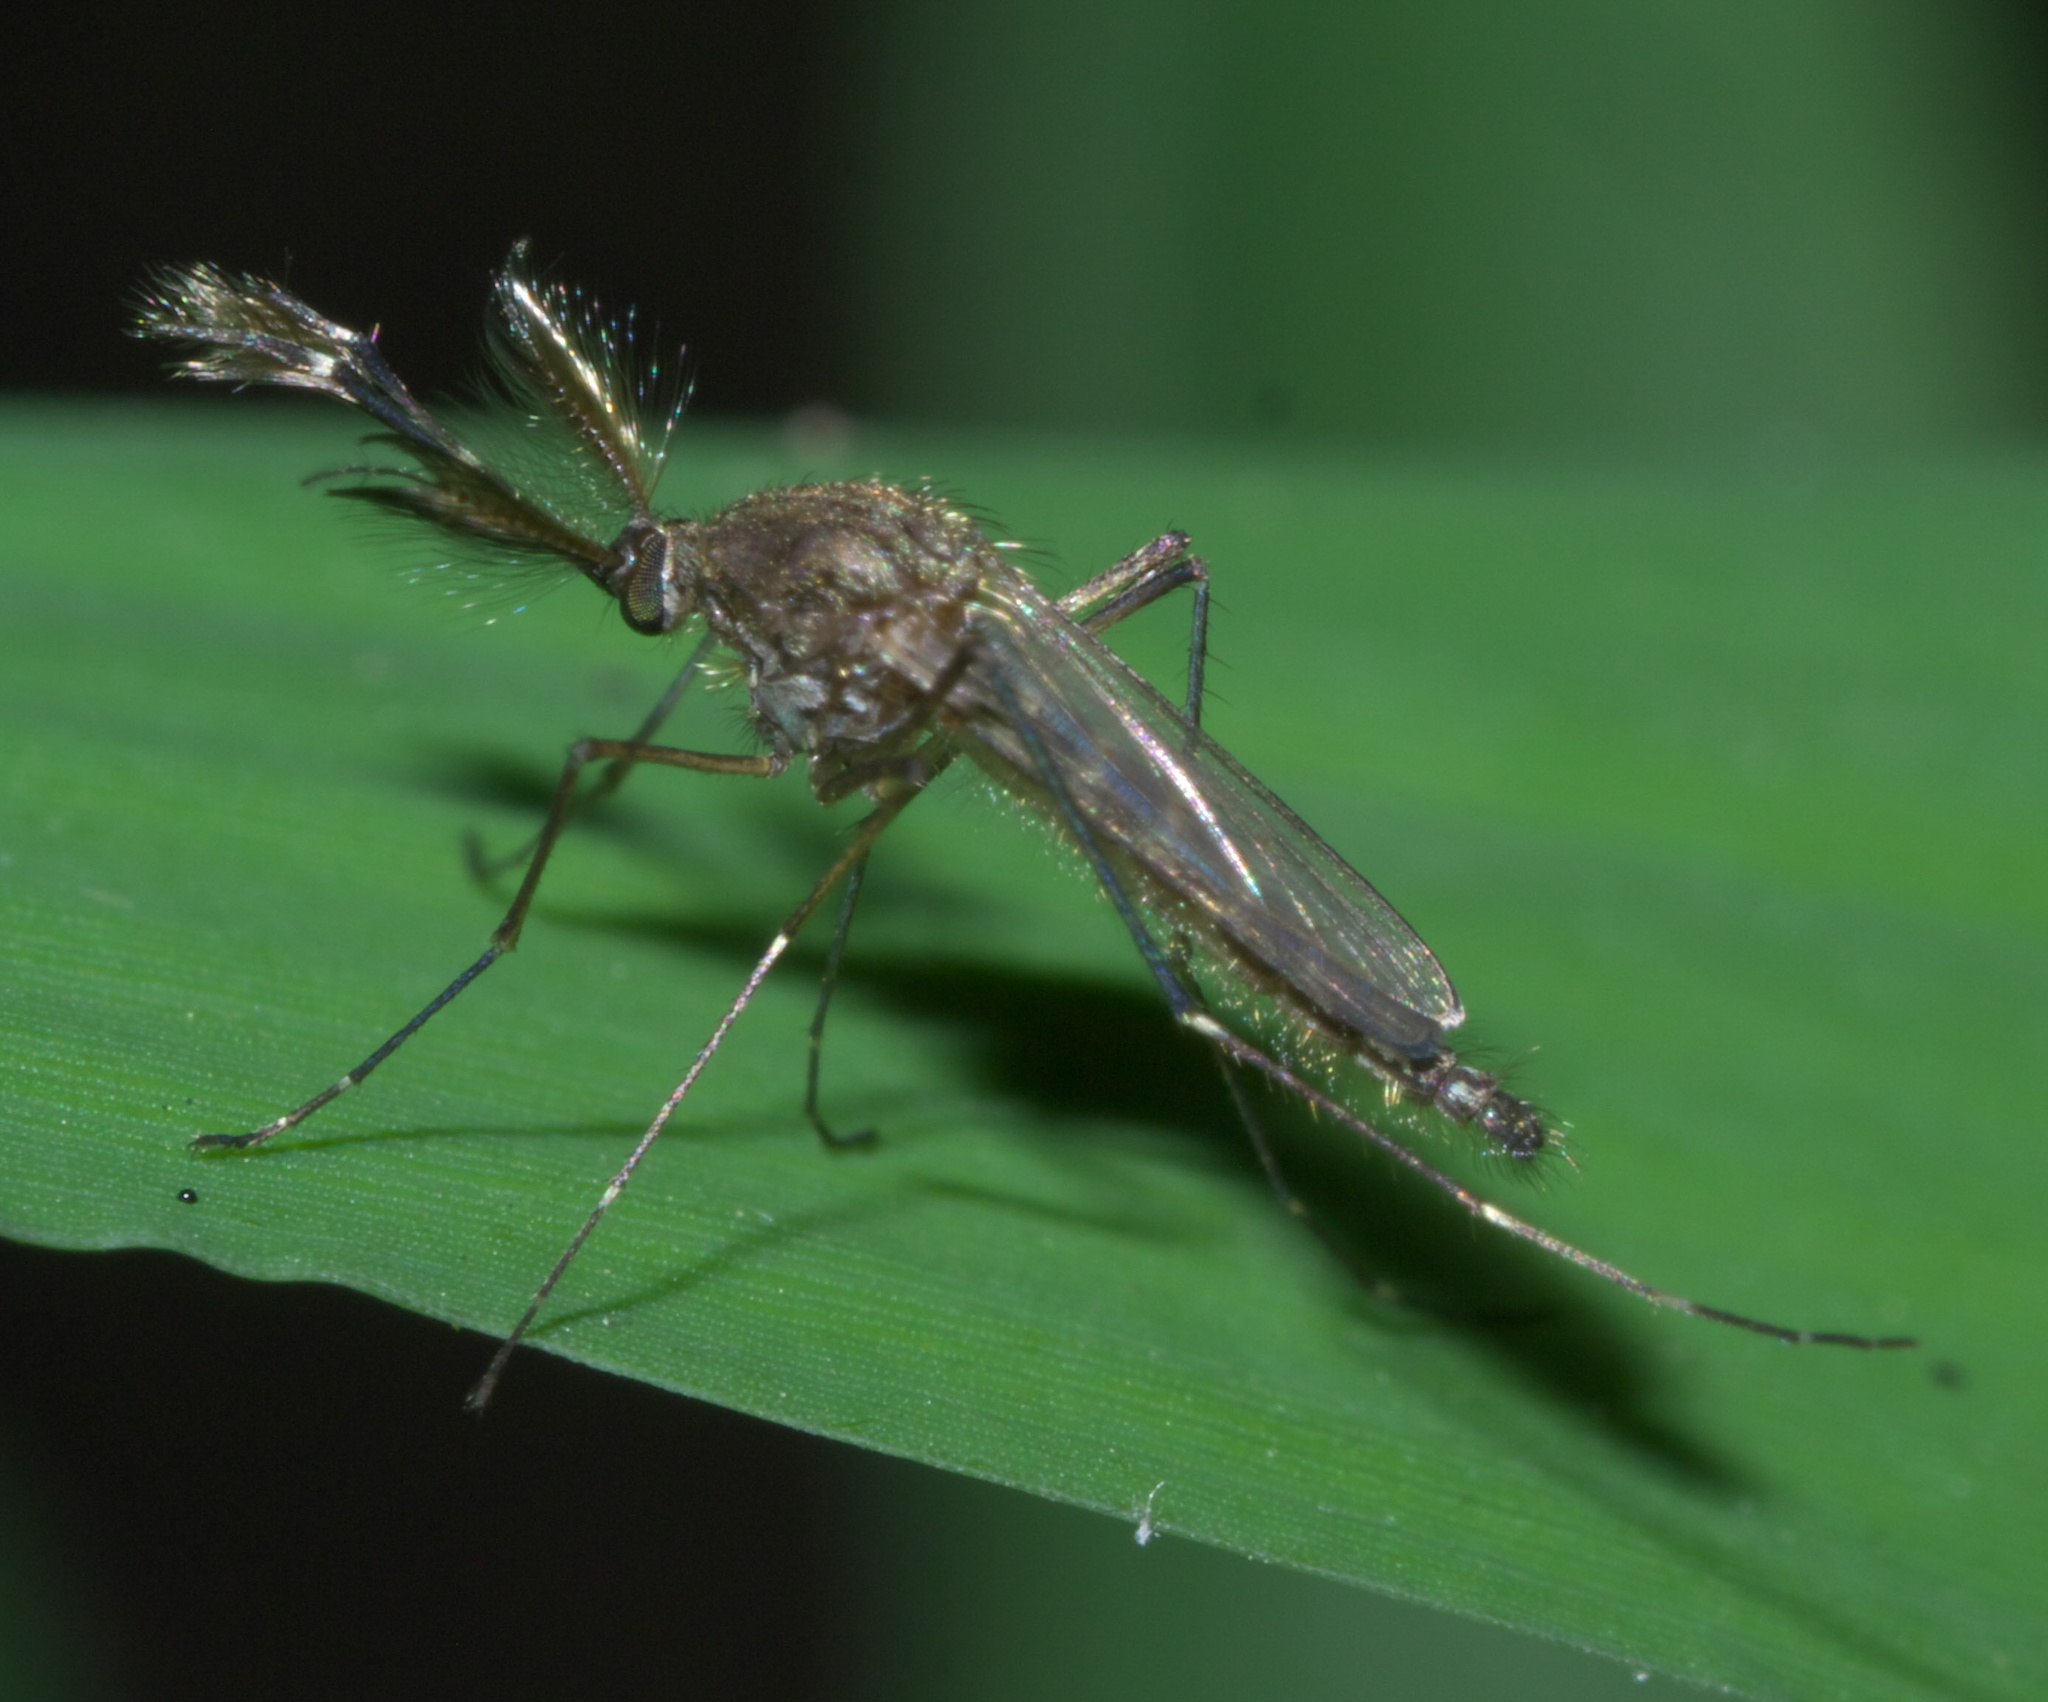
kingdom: Animalia
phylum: Arthropoda
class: Insecta
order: Diptera
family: Culicidae
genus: Aedes
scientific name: Aedes vexans
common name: Inland floodwater mosquito
